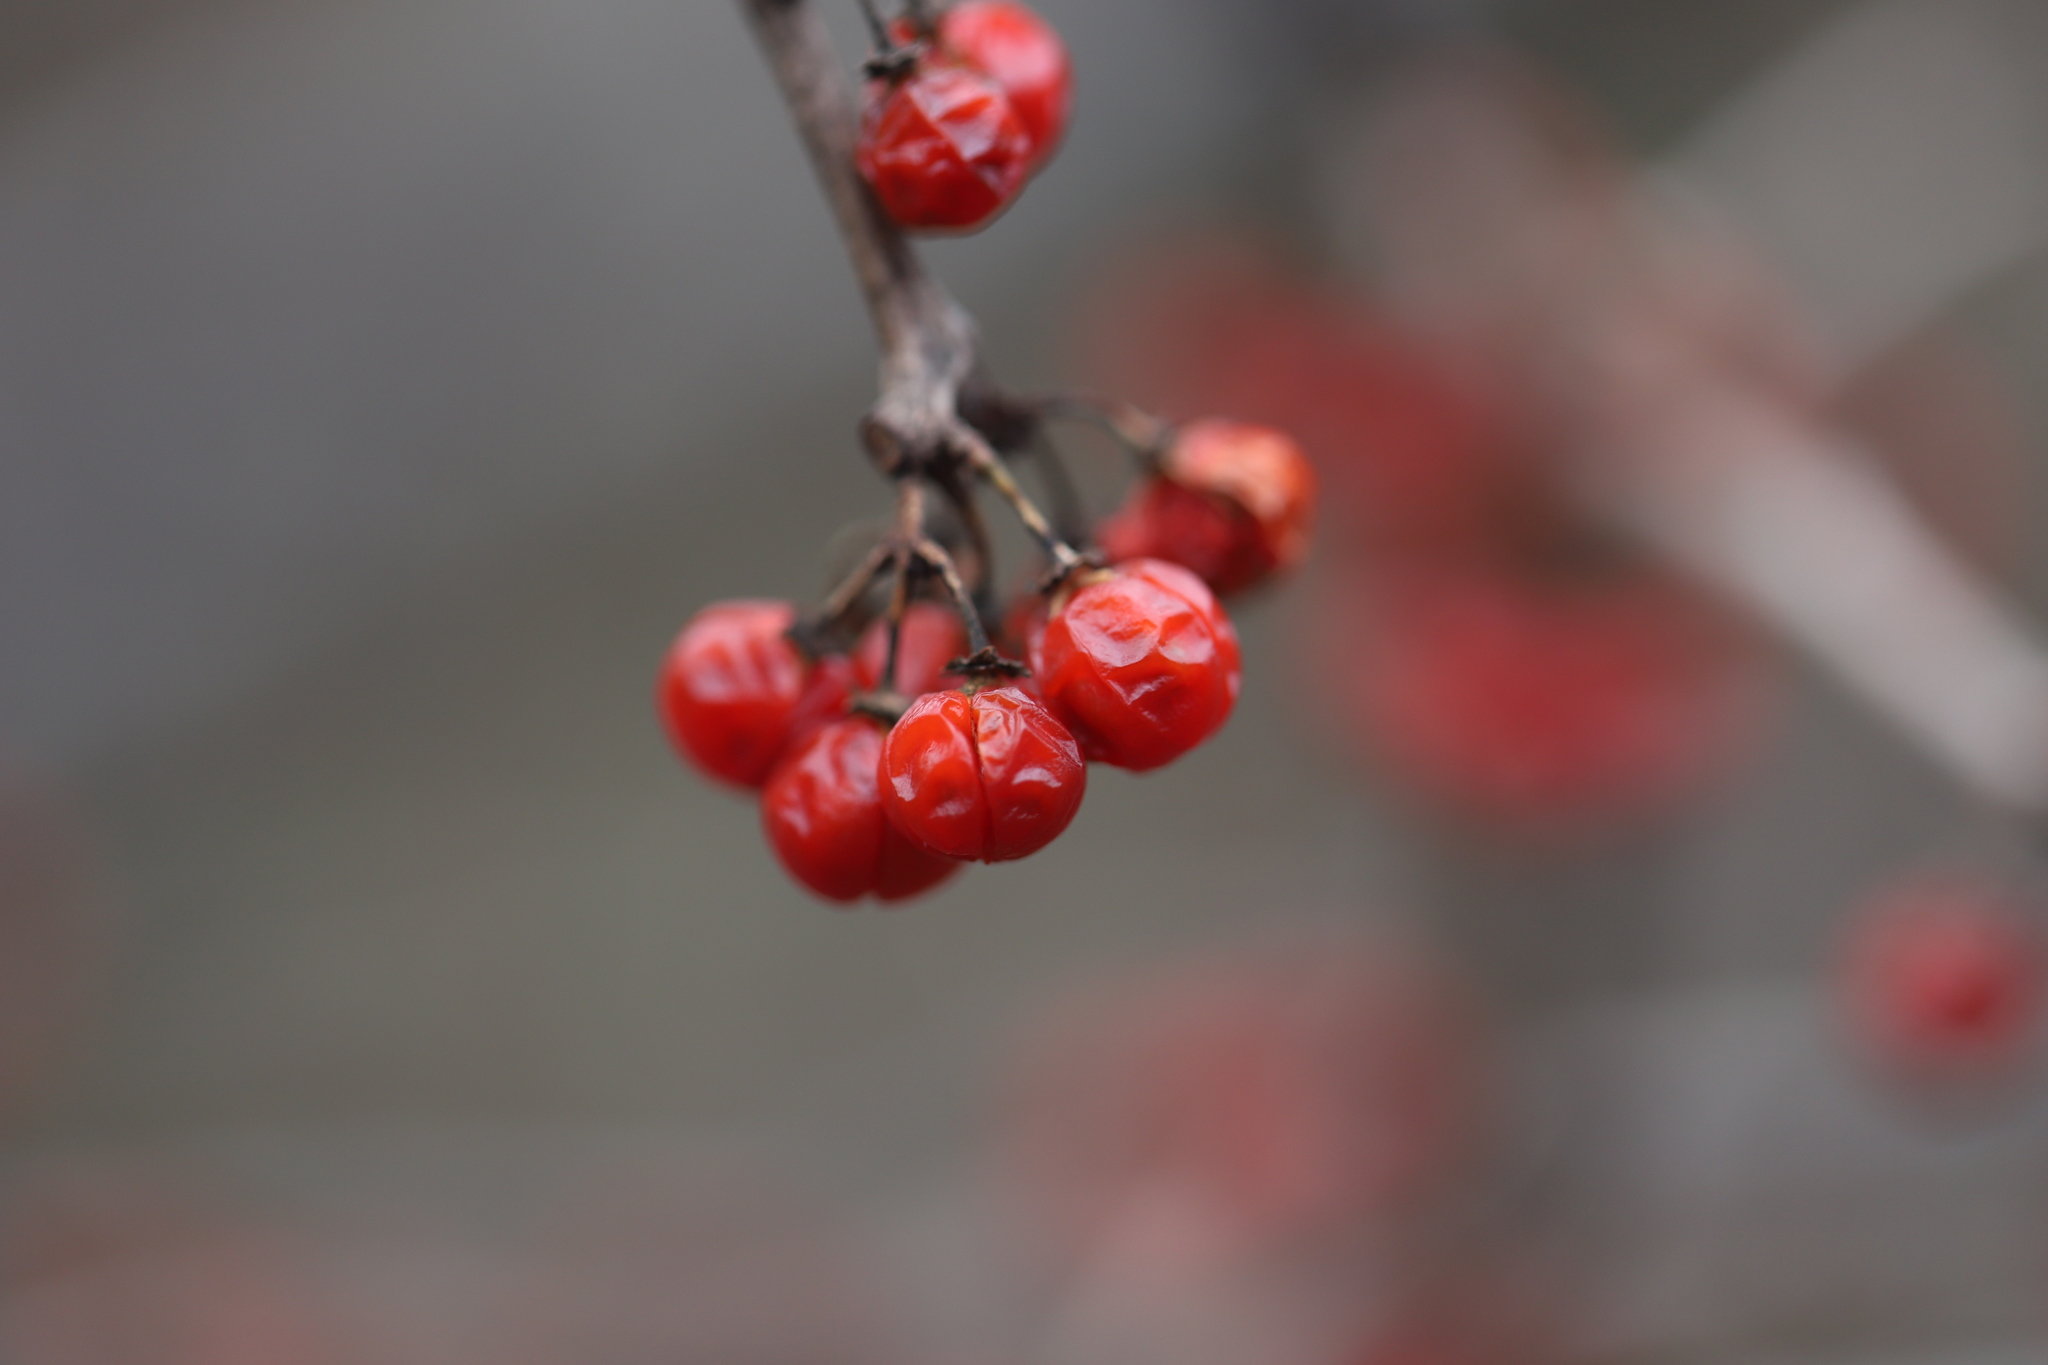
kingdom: Plantae
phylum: Tracheophyta
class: Magnoliopsida
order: Celastrales
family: Celastraceae
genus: Celastrus
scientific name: Celastrus orbiculatus
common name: Oriental bittersweet
